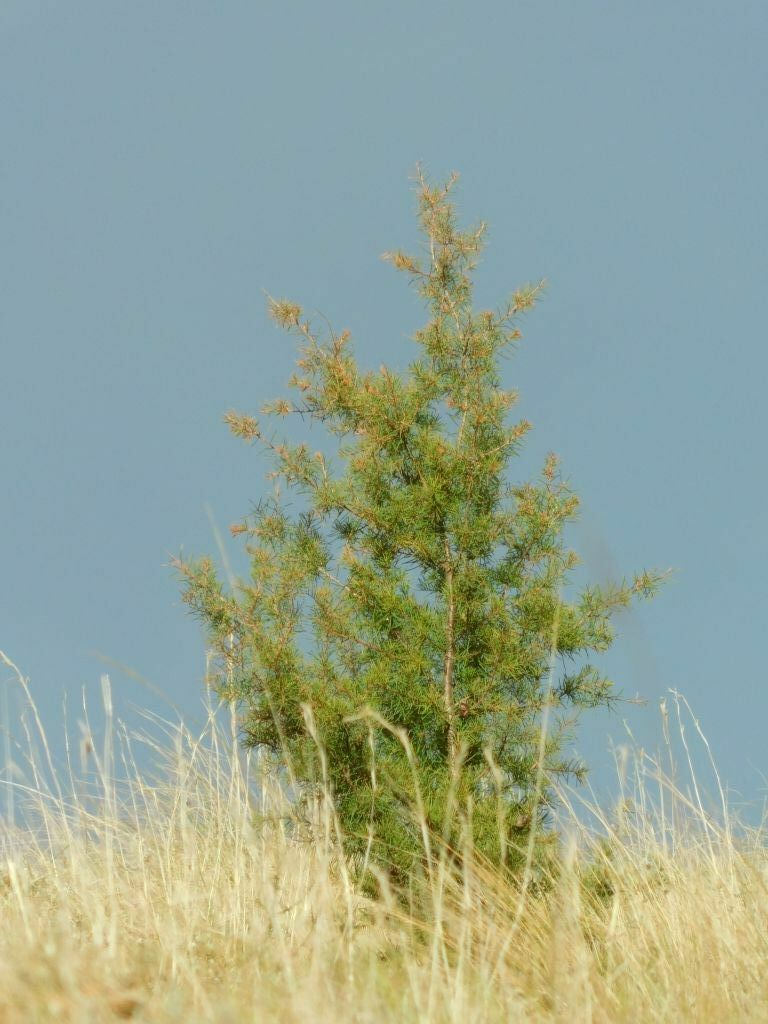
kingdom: Plantae
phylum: Tracheophyta
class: Magnoliopsida
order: Proteales
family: Proteaceae
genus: Hakea
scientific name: Hakea sericea
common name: Needle bush
